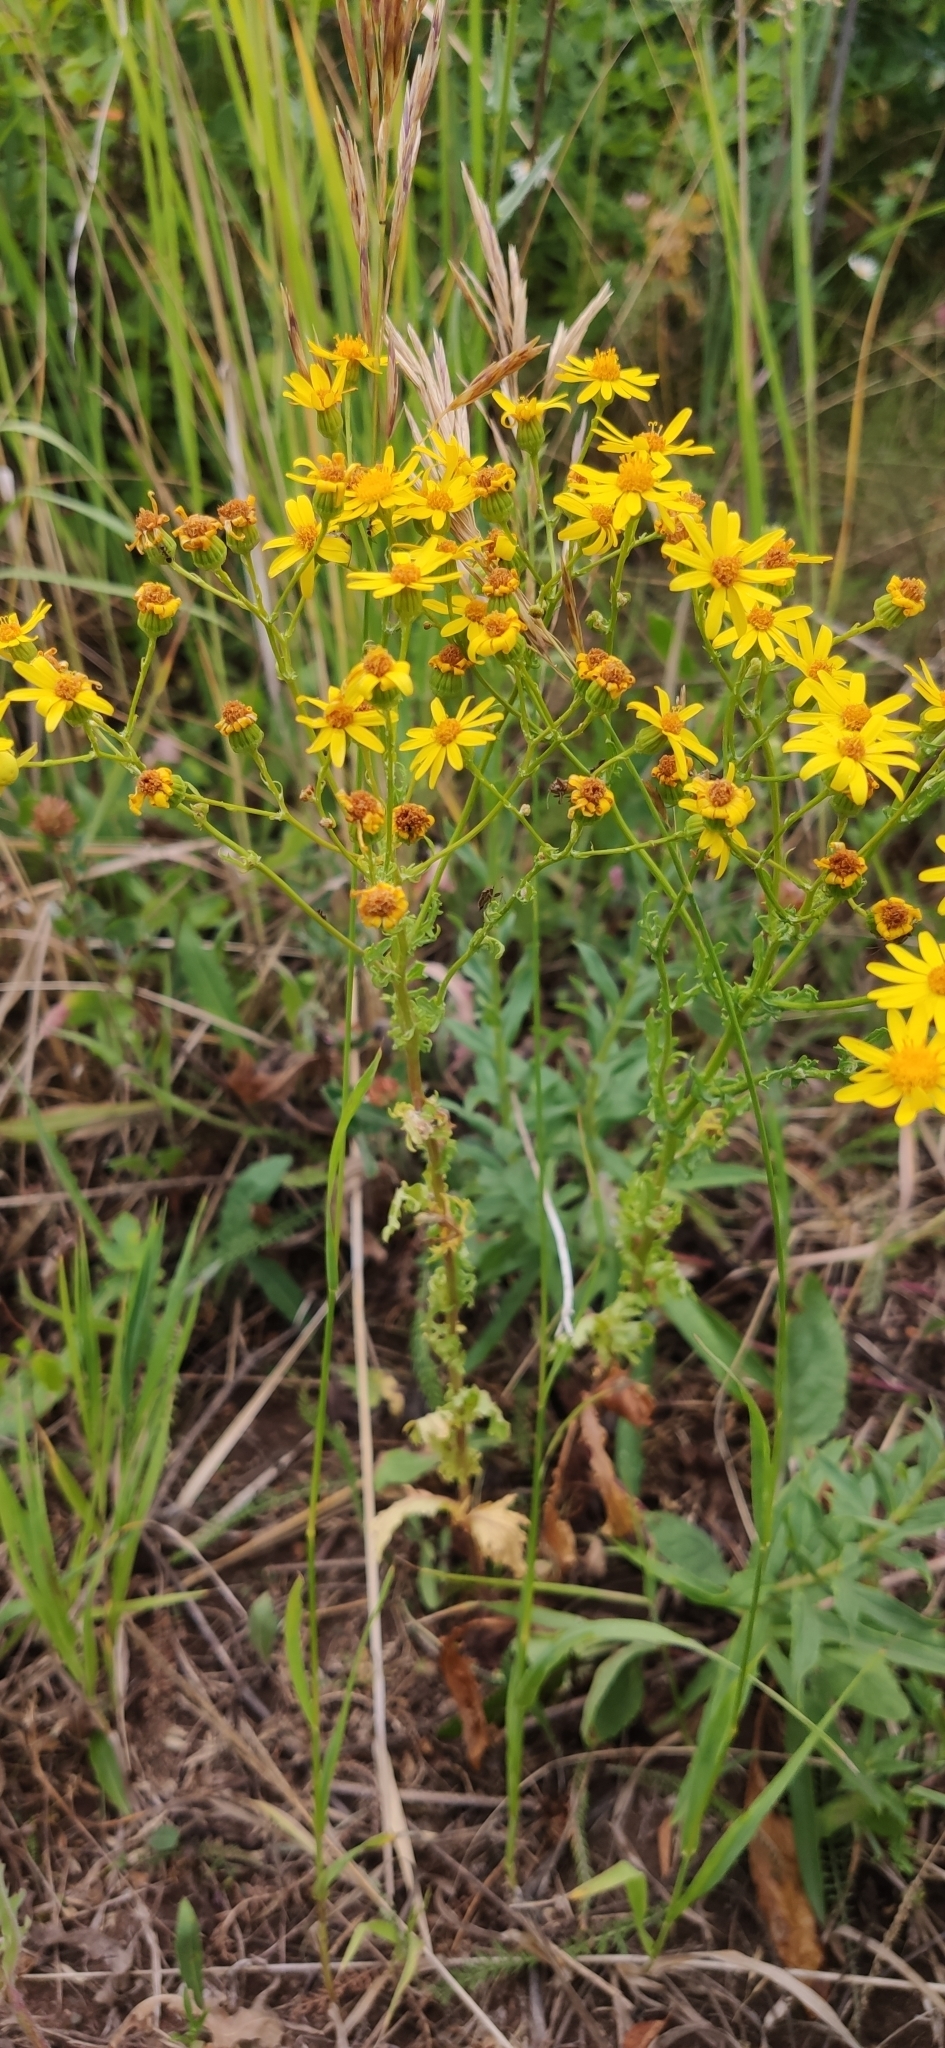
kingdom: Plantae
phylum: Tracheophyta
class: Magnoliopsida
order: Asterales
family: Asteraceae
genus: Jacobaea
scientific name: Jacobaea vulgaris
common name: Stinking willie
